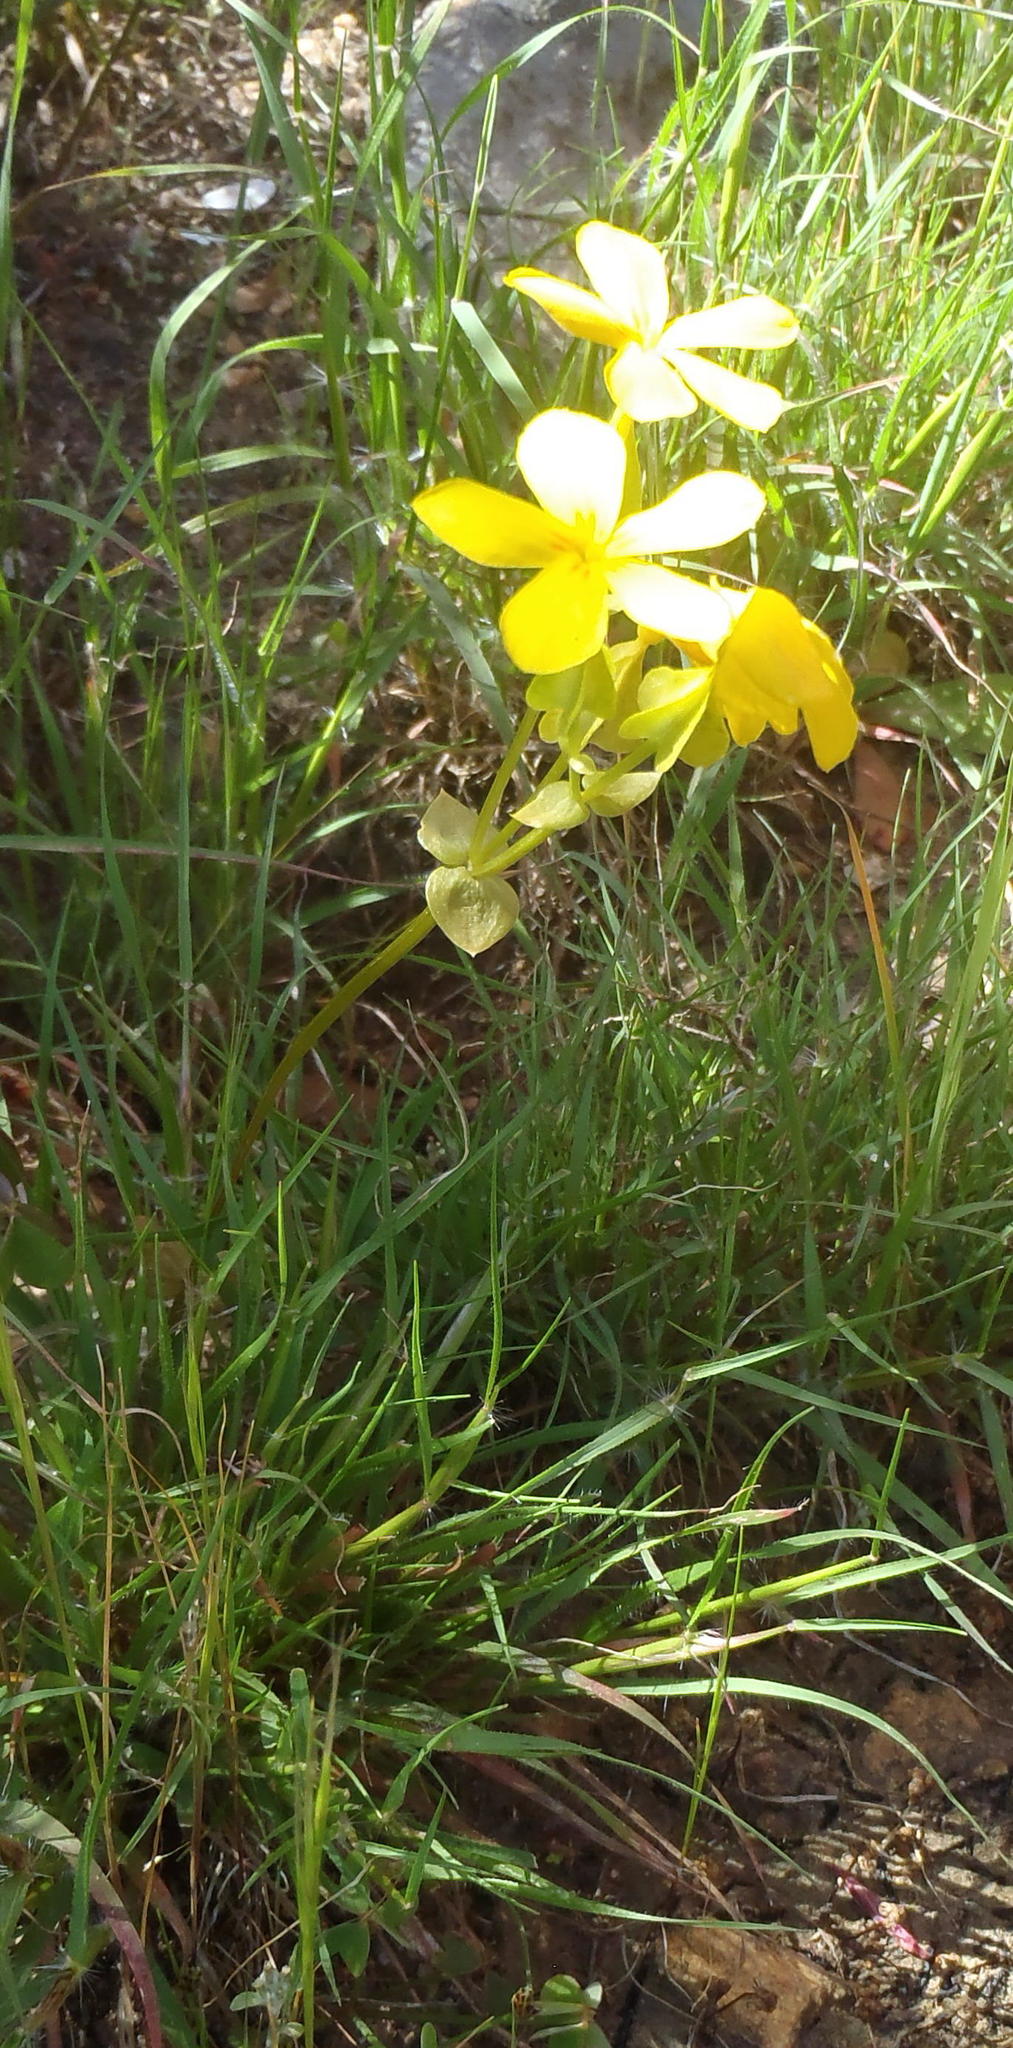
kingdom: Plantae
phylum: Tracheophyta
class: Magnoliopsida
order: Gentianales
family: Gentianaceae
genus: Sebaea
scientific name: Sebaea exacoides
